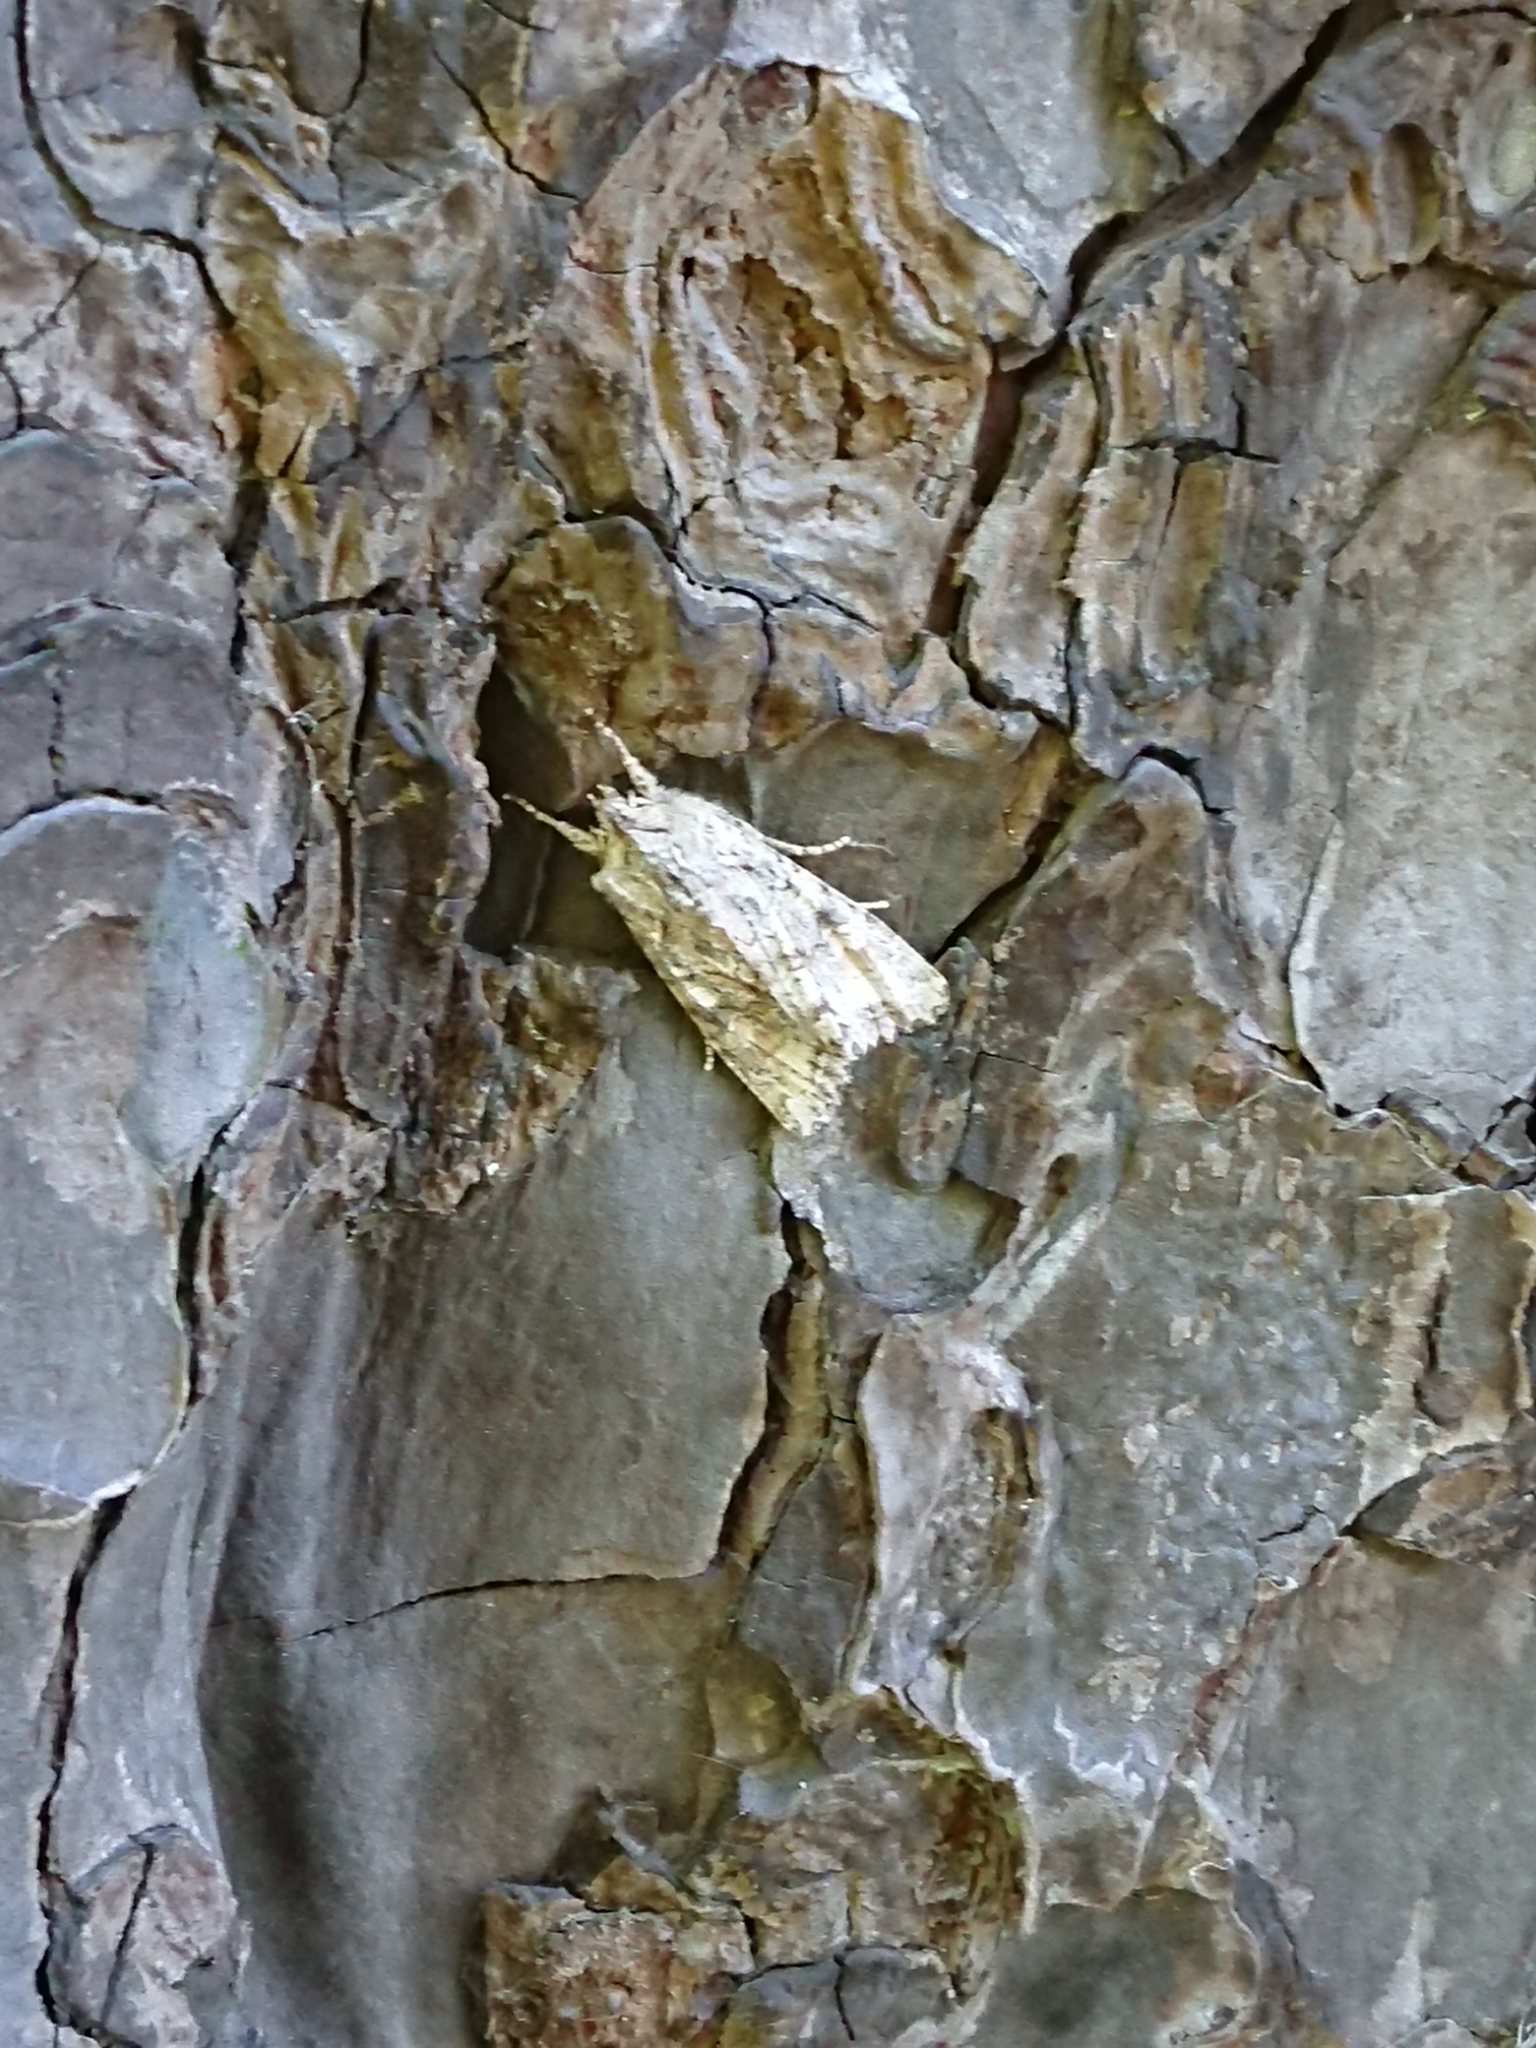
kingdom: Animalia
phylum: Arthropoda
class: Insecta
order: Lepidoptera
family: Noctuidae
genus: Ichneutica
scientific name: Ichneutica mutans
